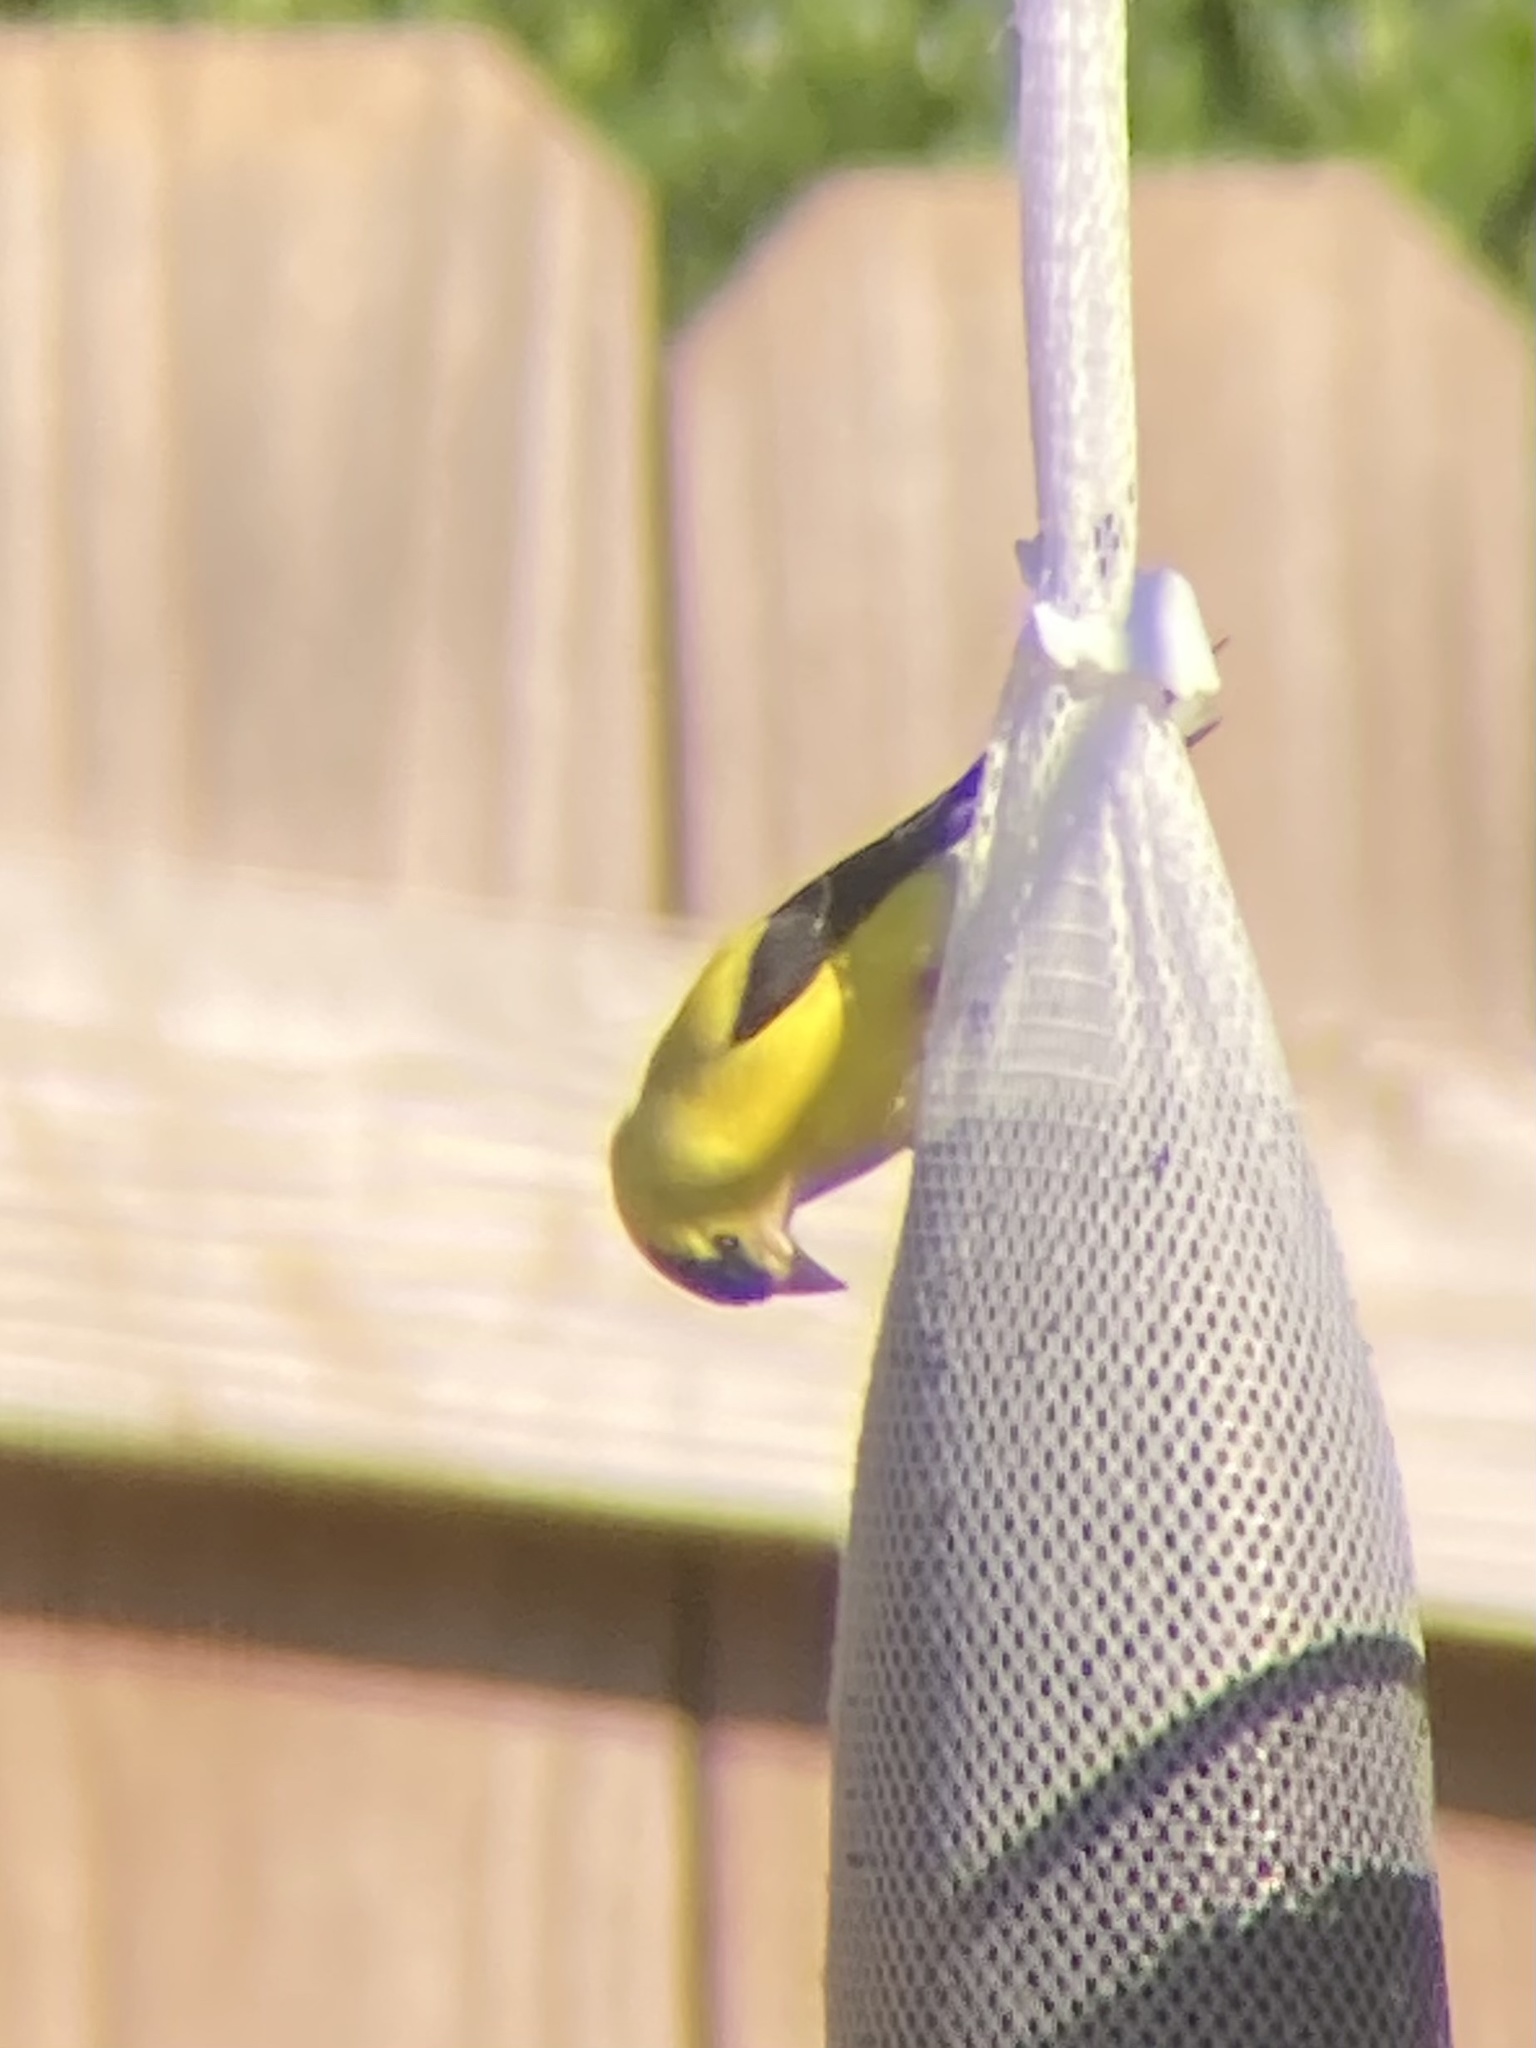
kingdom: Animalia
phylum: Chordata
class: Aves
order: Passeriformes
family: Fringillidae
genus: Spinus
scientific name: Spinus tristis
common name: American goldfinch
